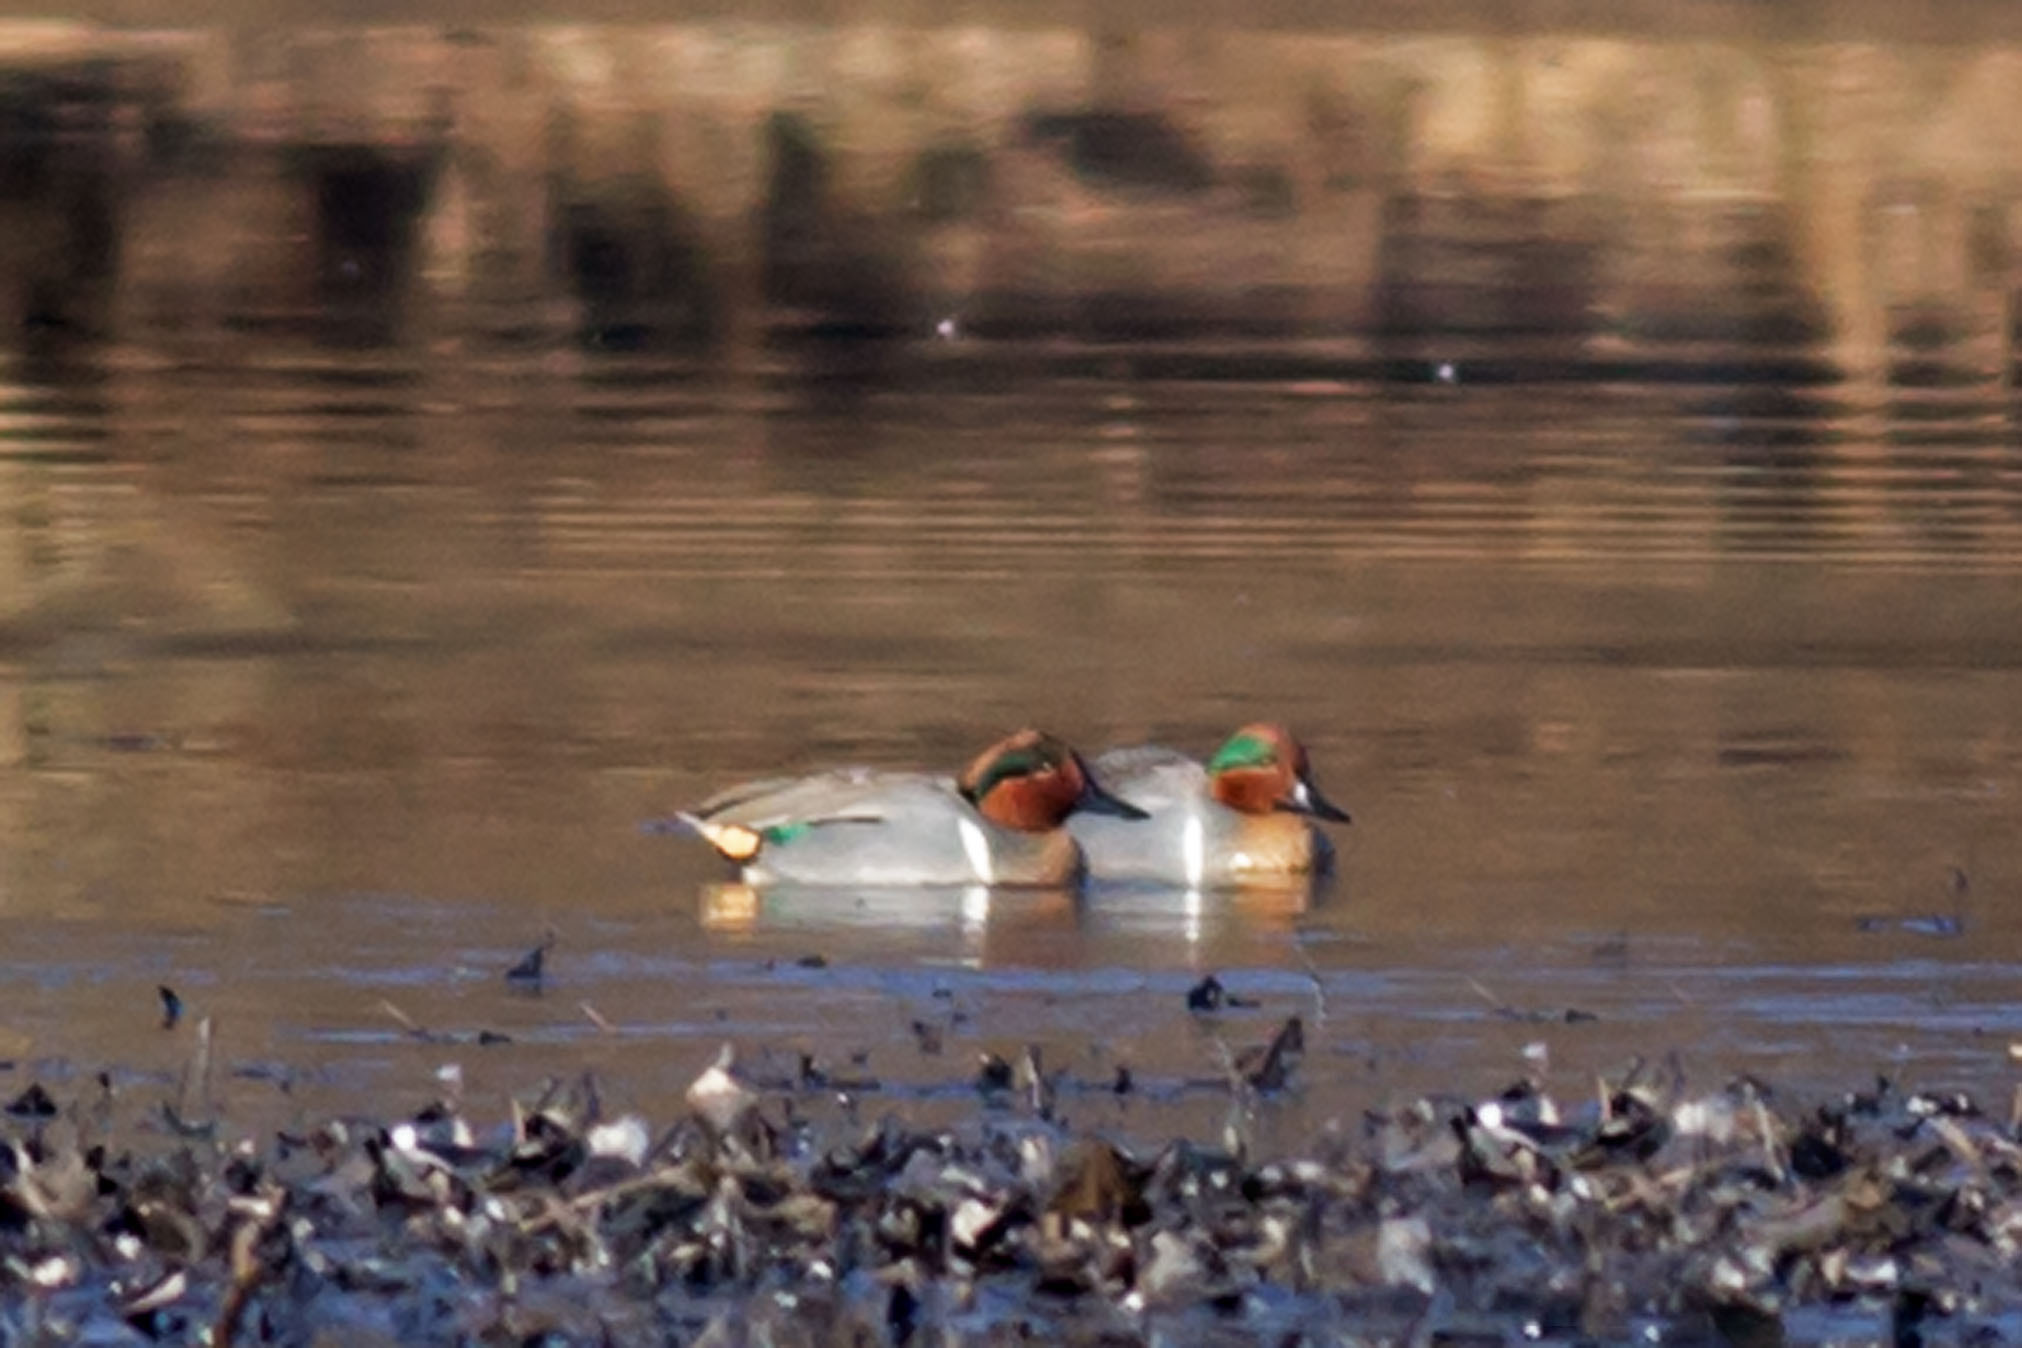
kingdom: Animalia
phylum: Chordata
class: Aves
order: Anseriformes
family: Anatidae
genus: Anas
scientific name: Anas crecca
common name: Eurasian teal
